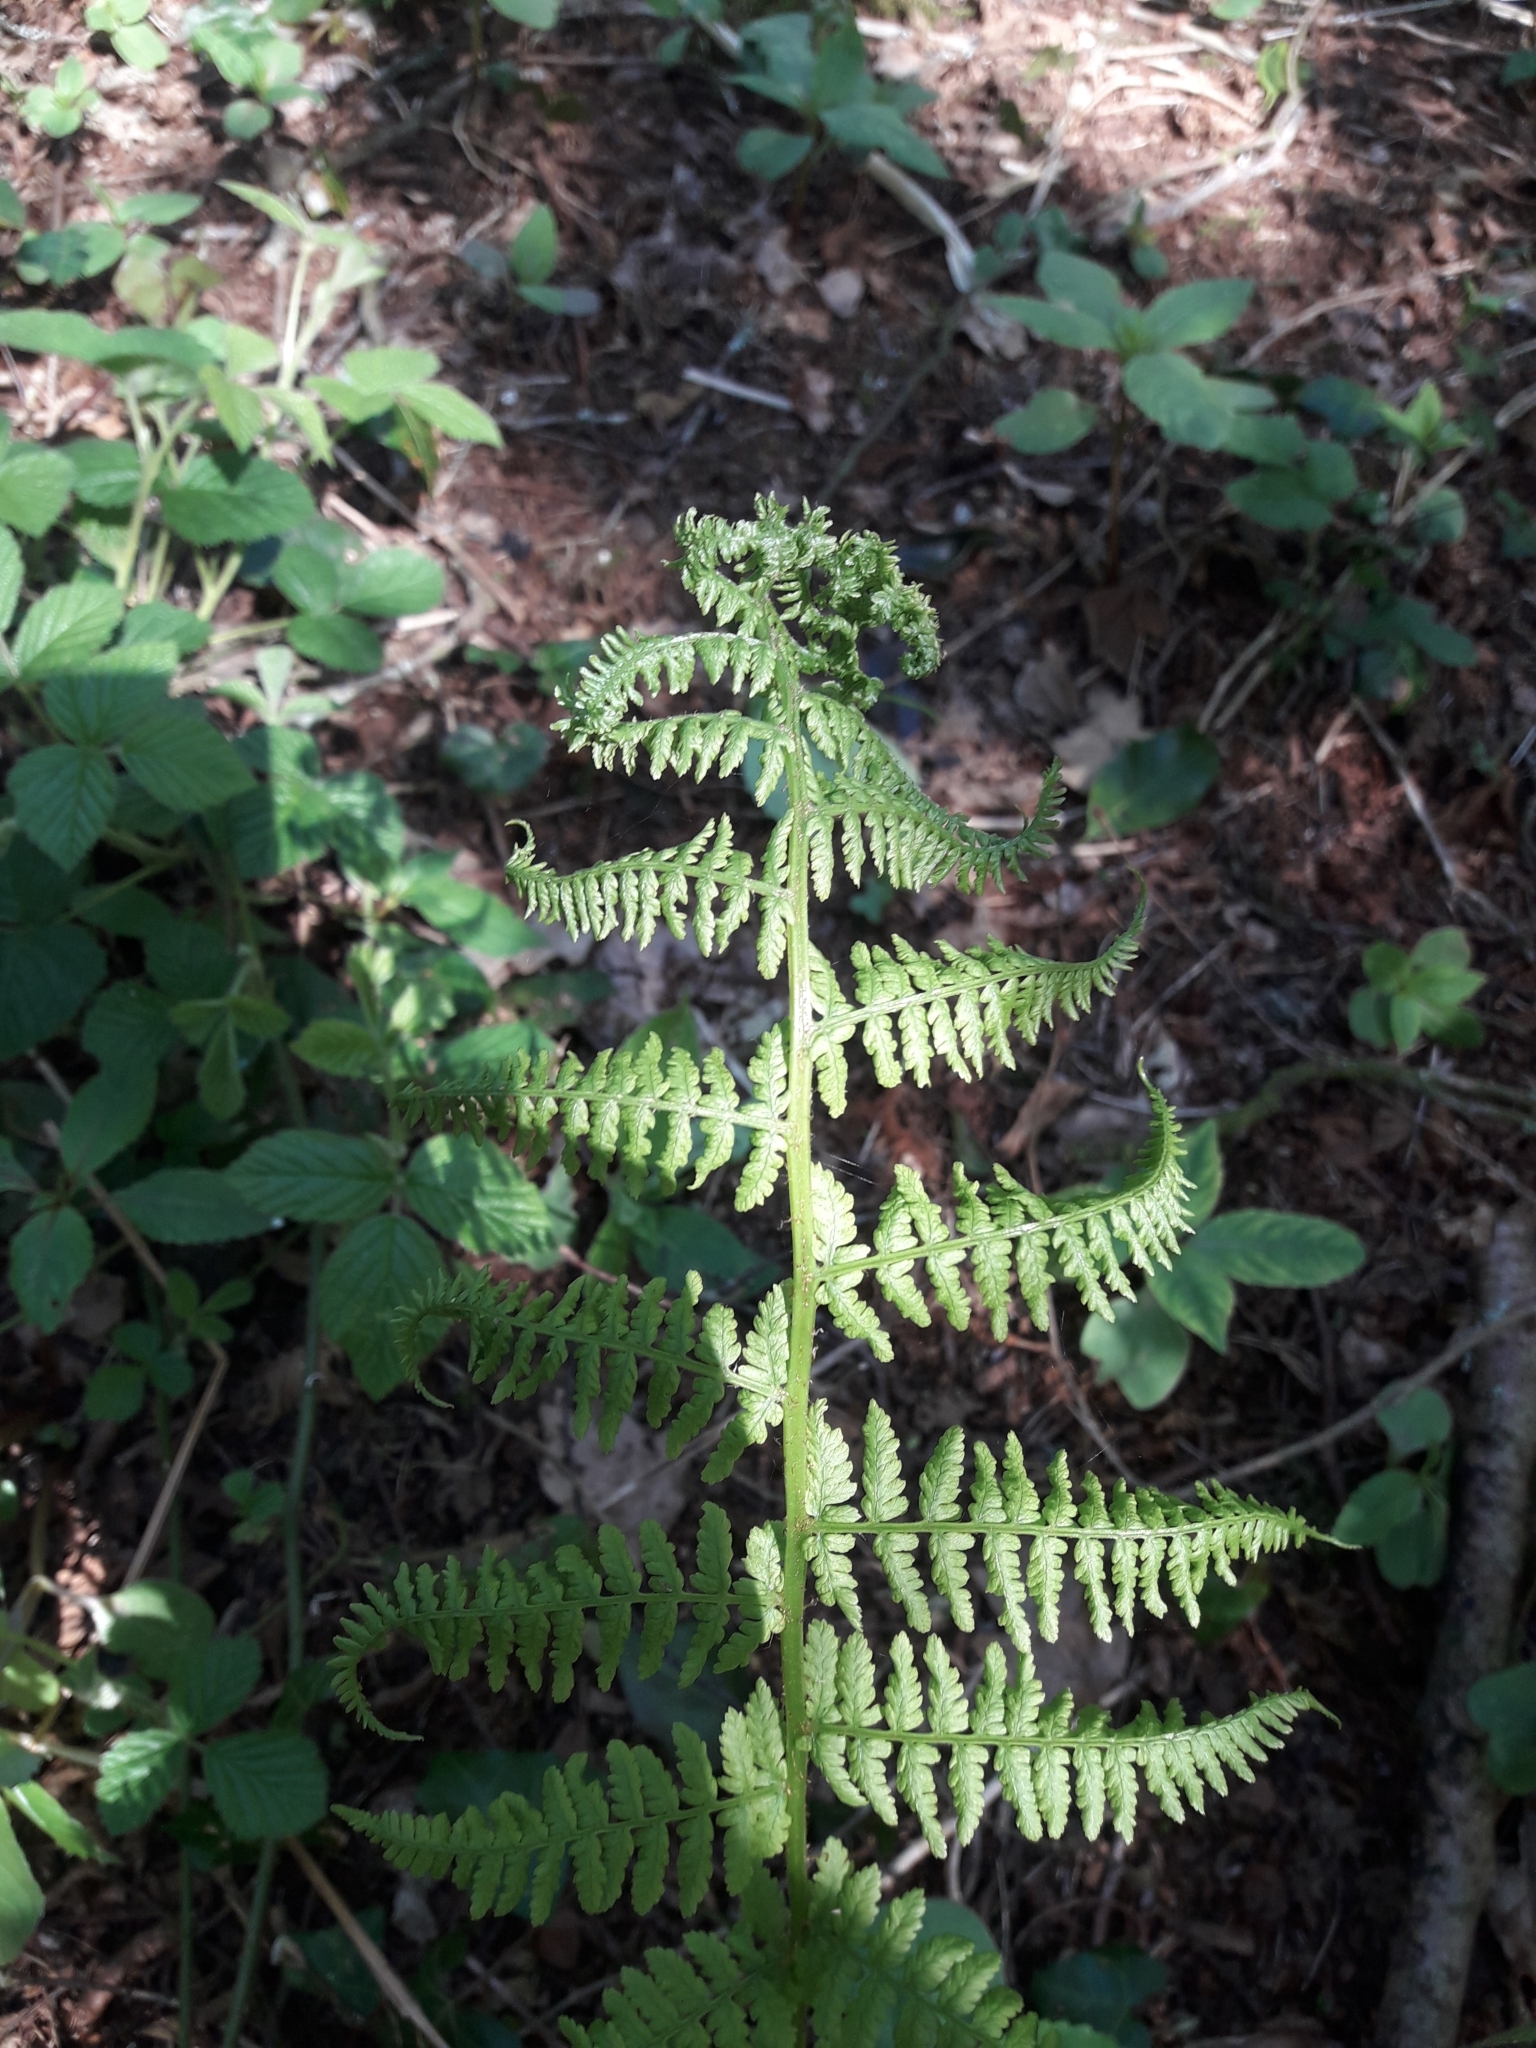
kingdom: Plantae
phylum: Tracheophyta
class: Polypodiopsida
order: Polypodiales
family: Athyriaceae
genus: Athyrium
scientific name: Athyrium filix-femina
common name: Lady fern
